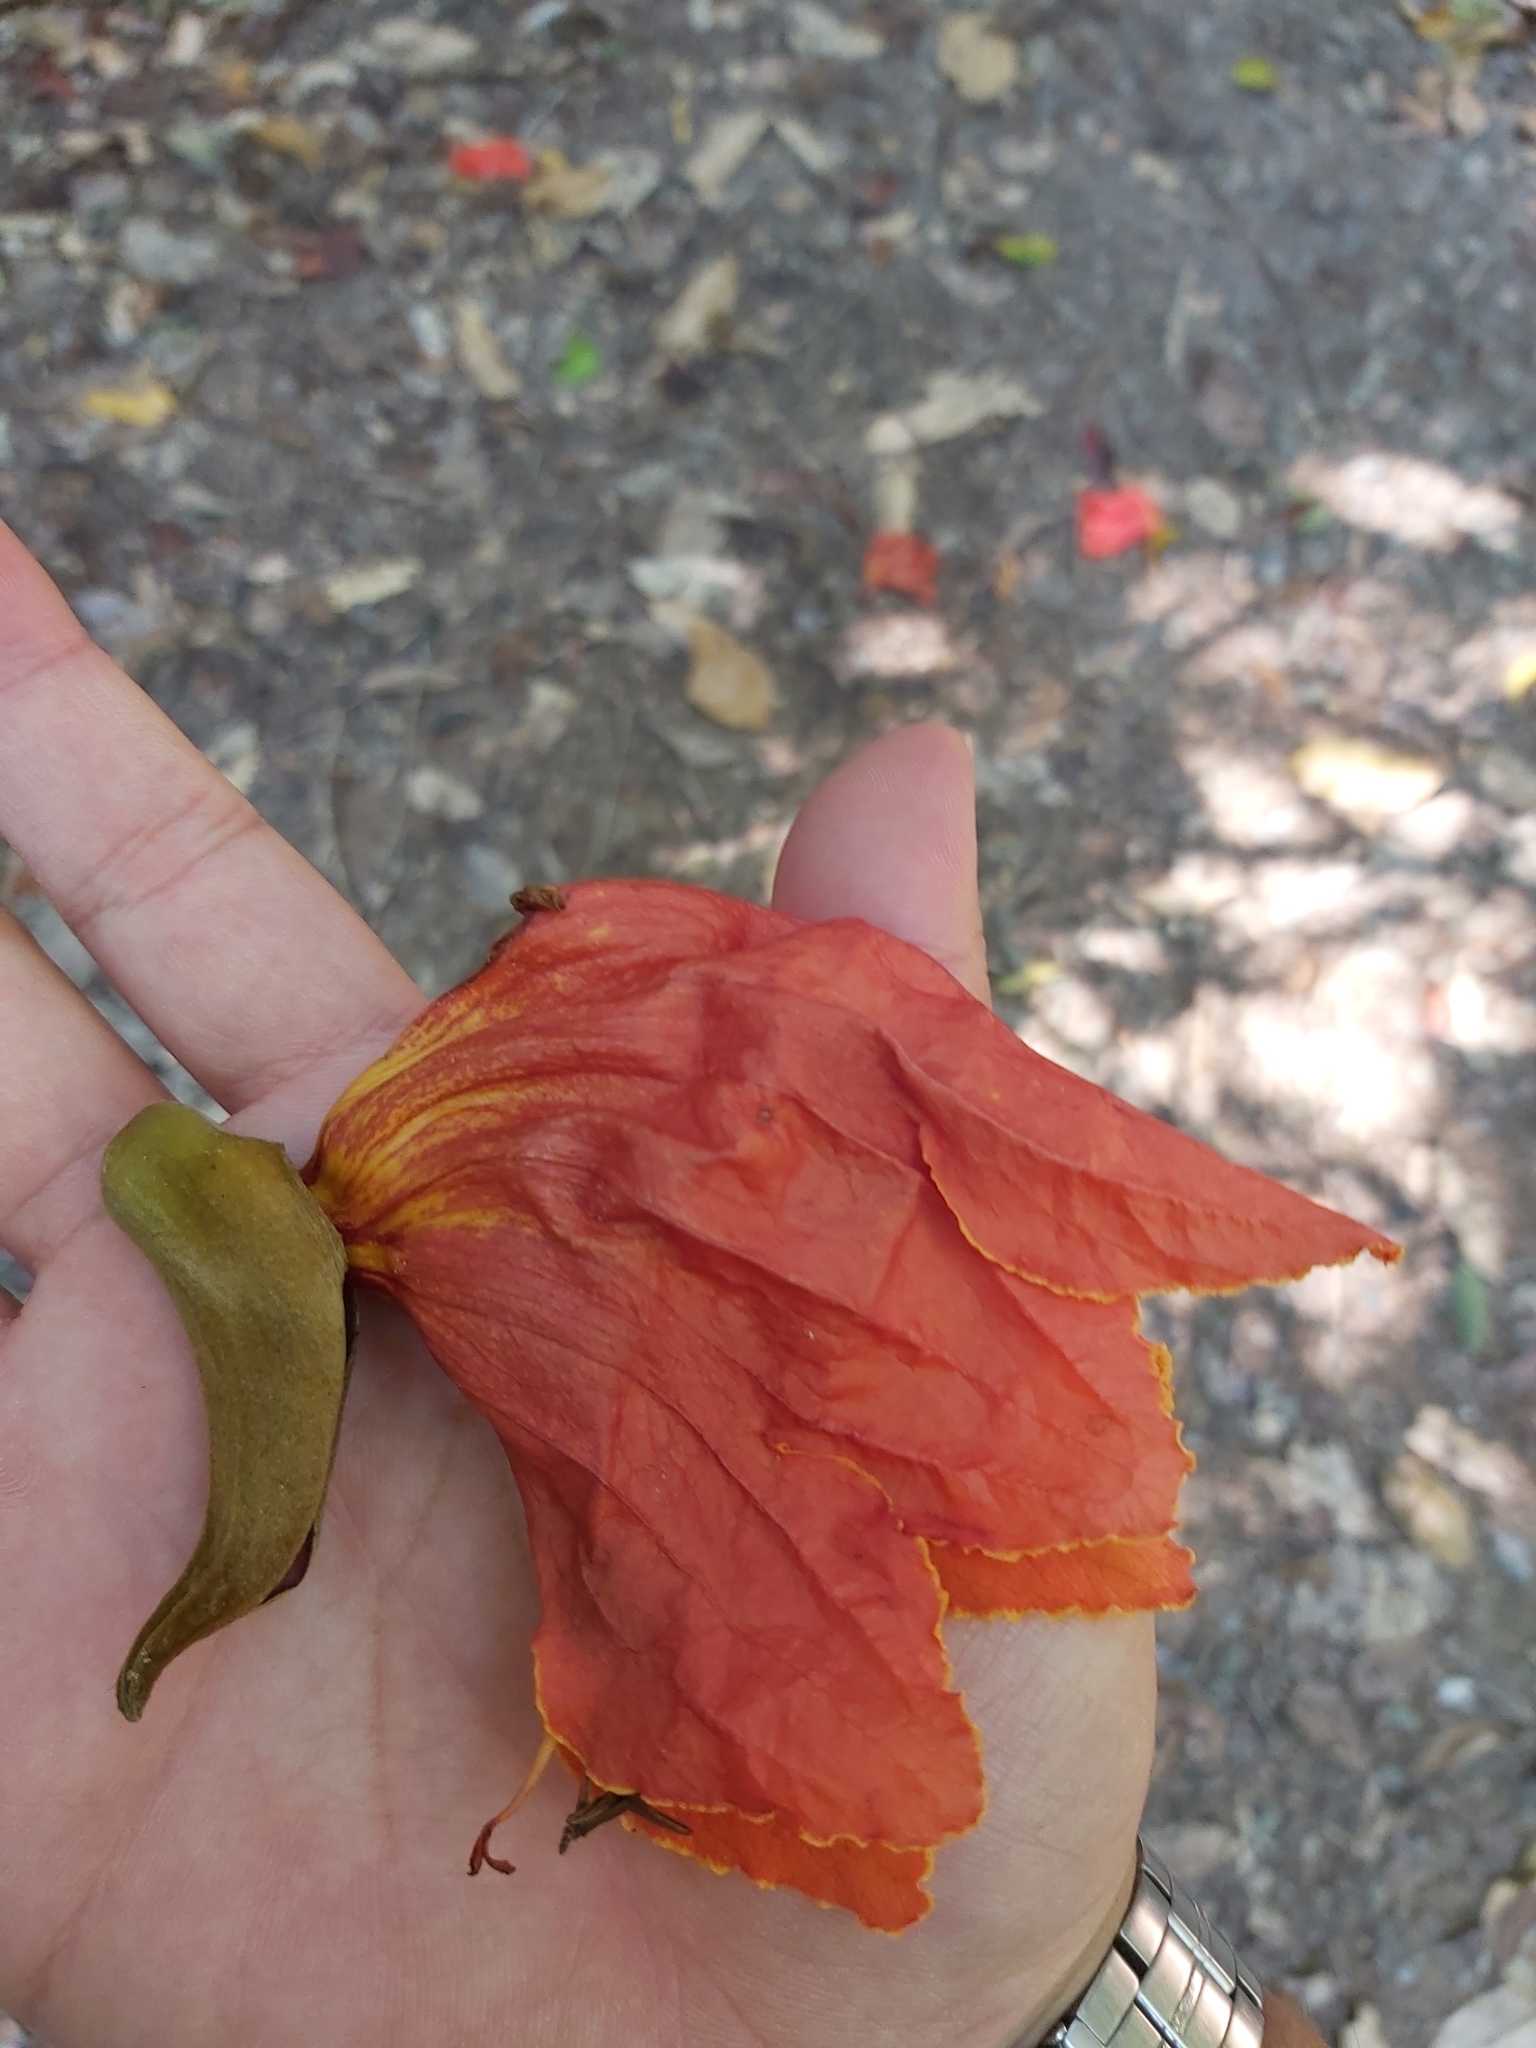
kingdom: Plantae
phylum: Tracheophyta
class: Magnoliopsida
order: Lamiales
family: Bignoniaceae
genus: Spathodea
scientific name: Spathodea campanulata
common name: African tuliptree
